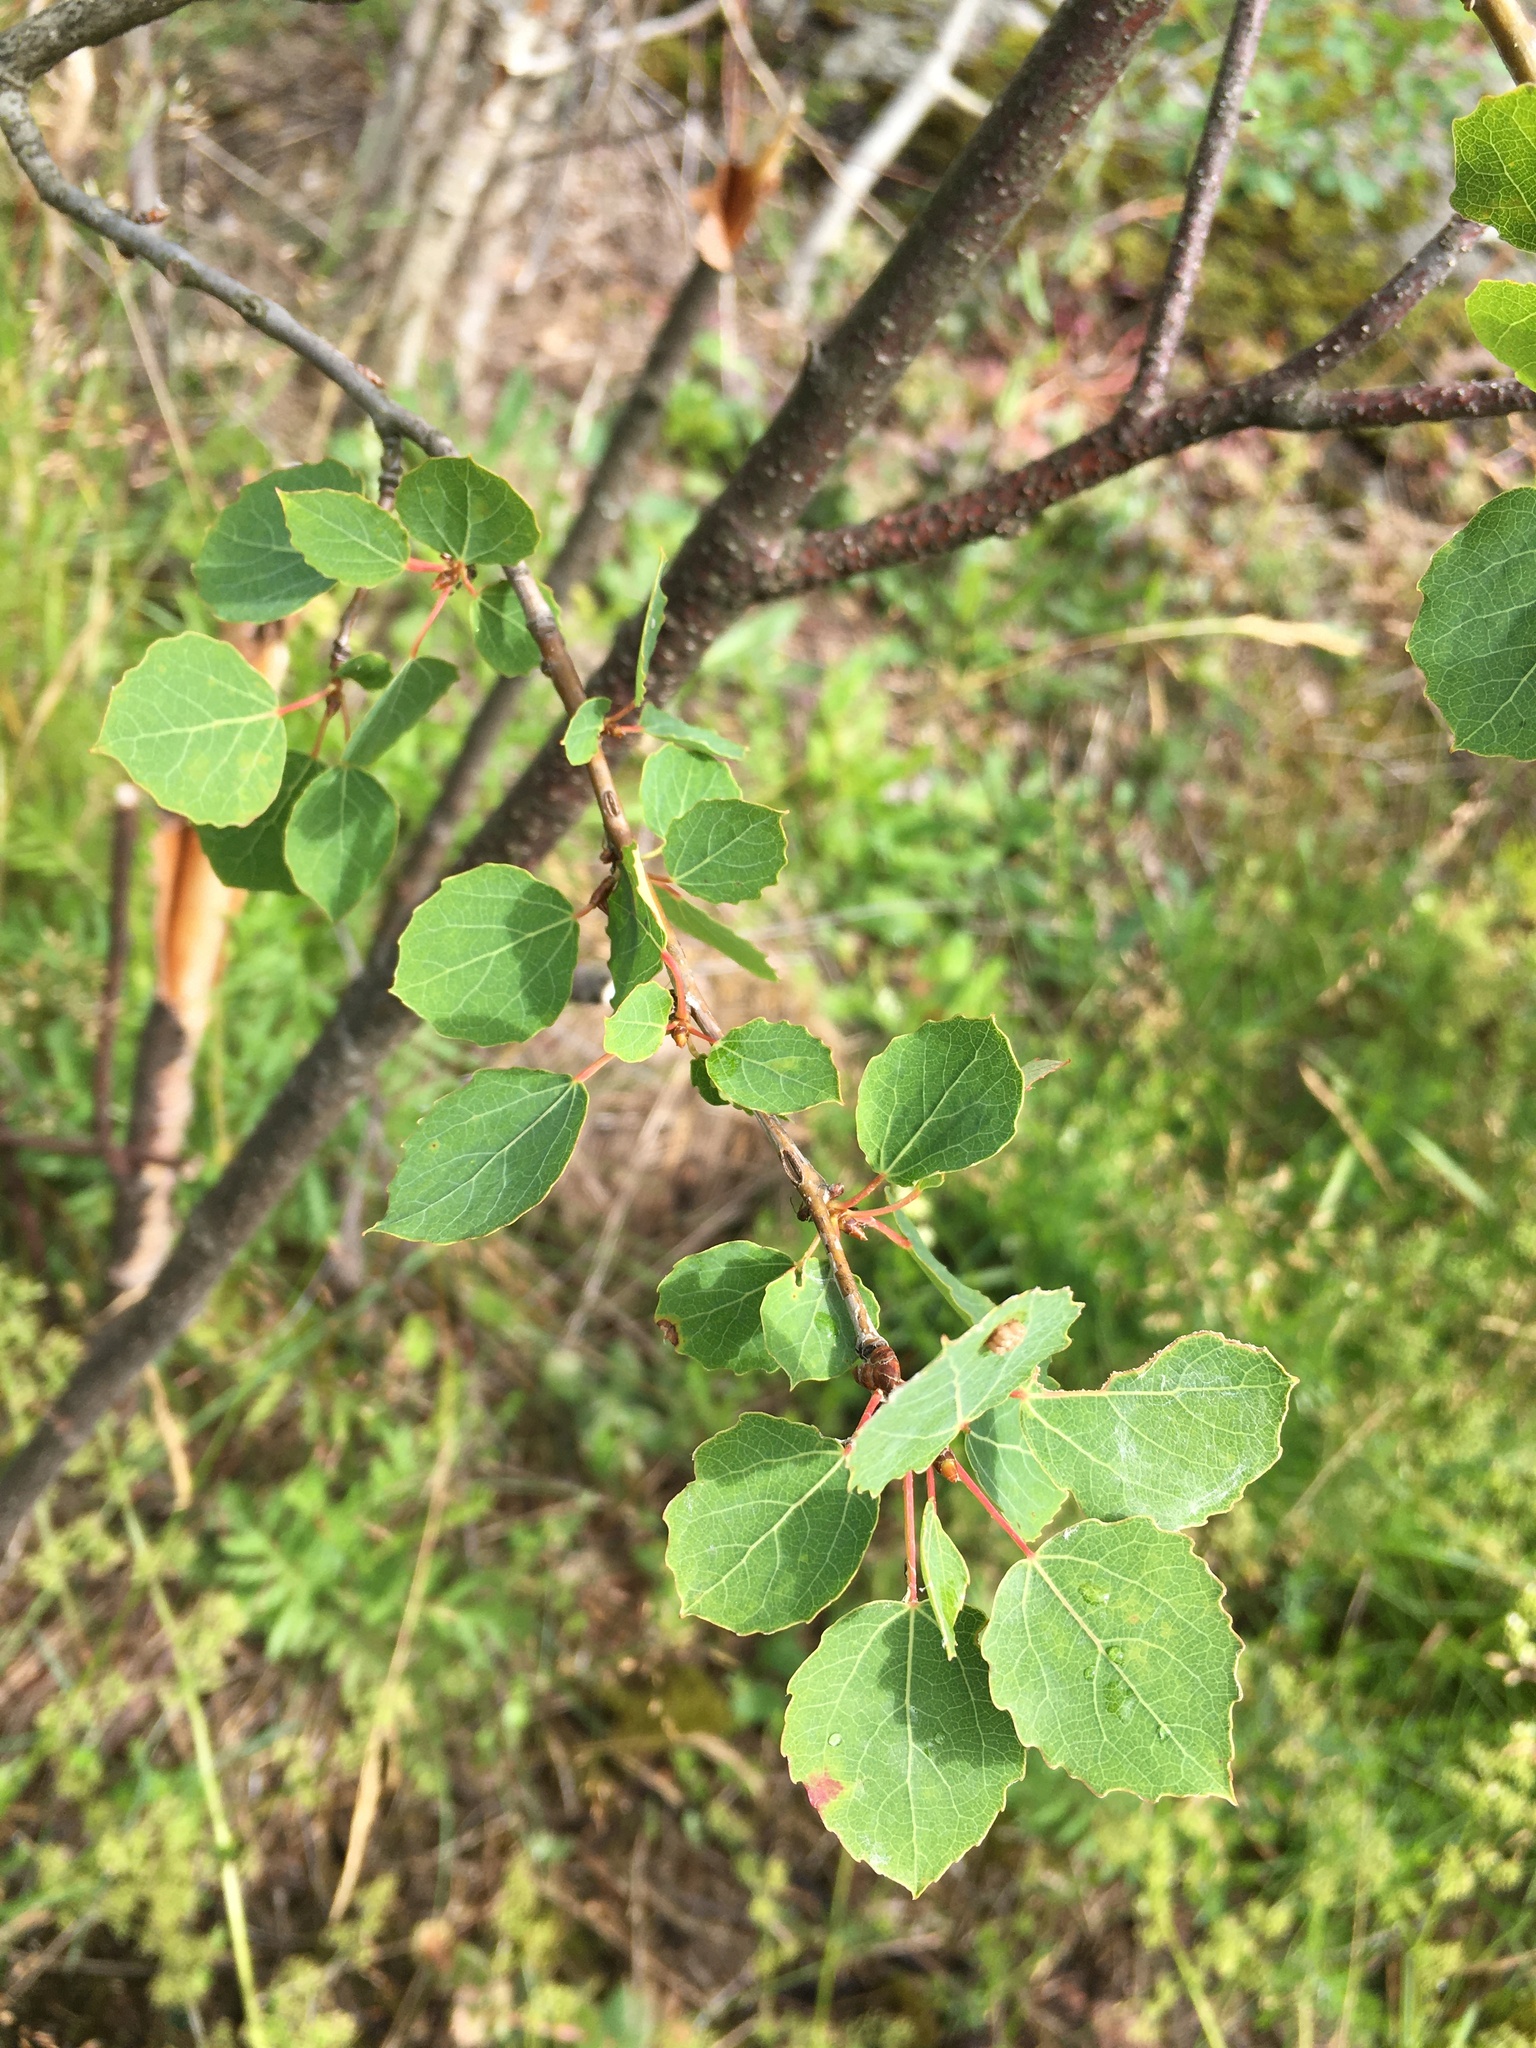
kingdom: Plantae
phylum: Tracheophyta
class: Magnoliopsida
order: Malpighiales
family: Salicaceae
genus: Populus
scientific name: Populus tremula
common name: European aspen
